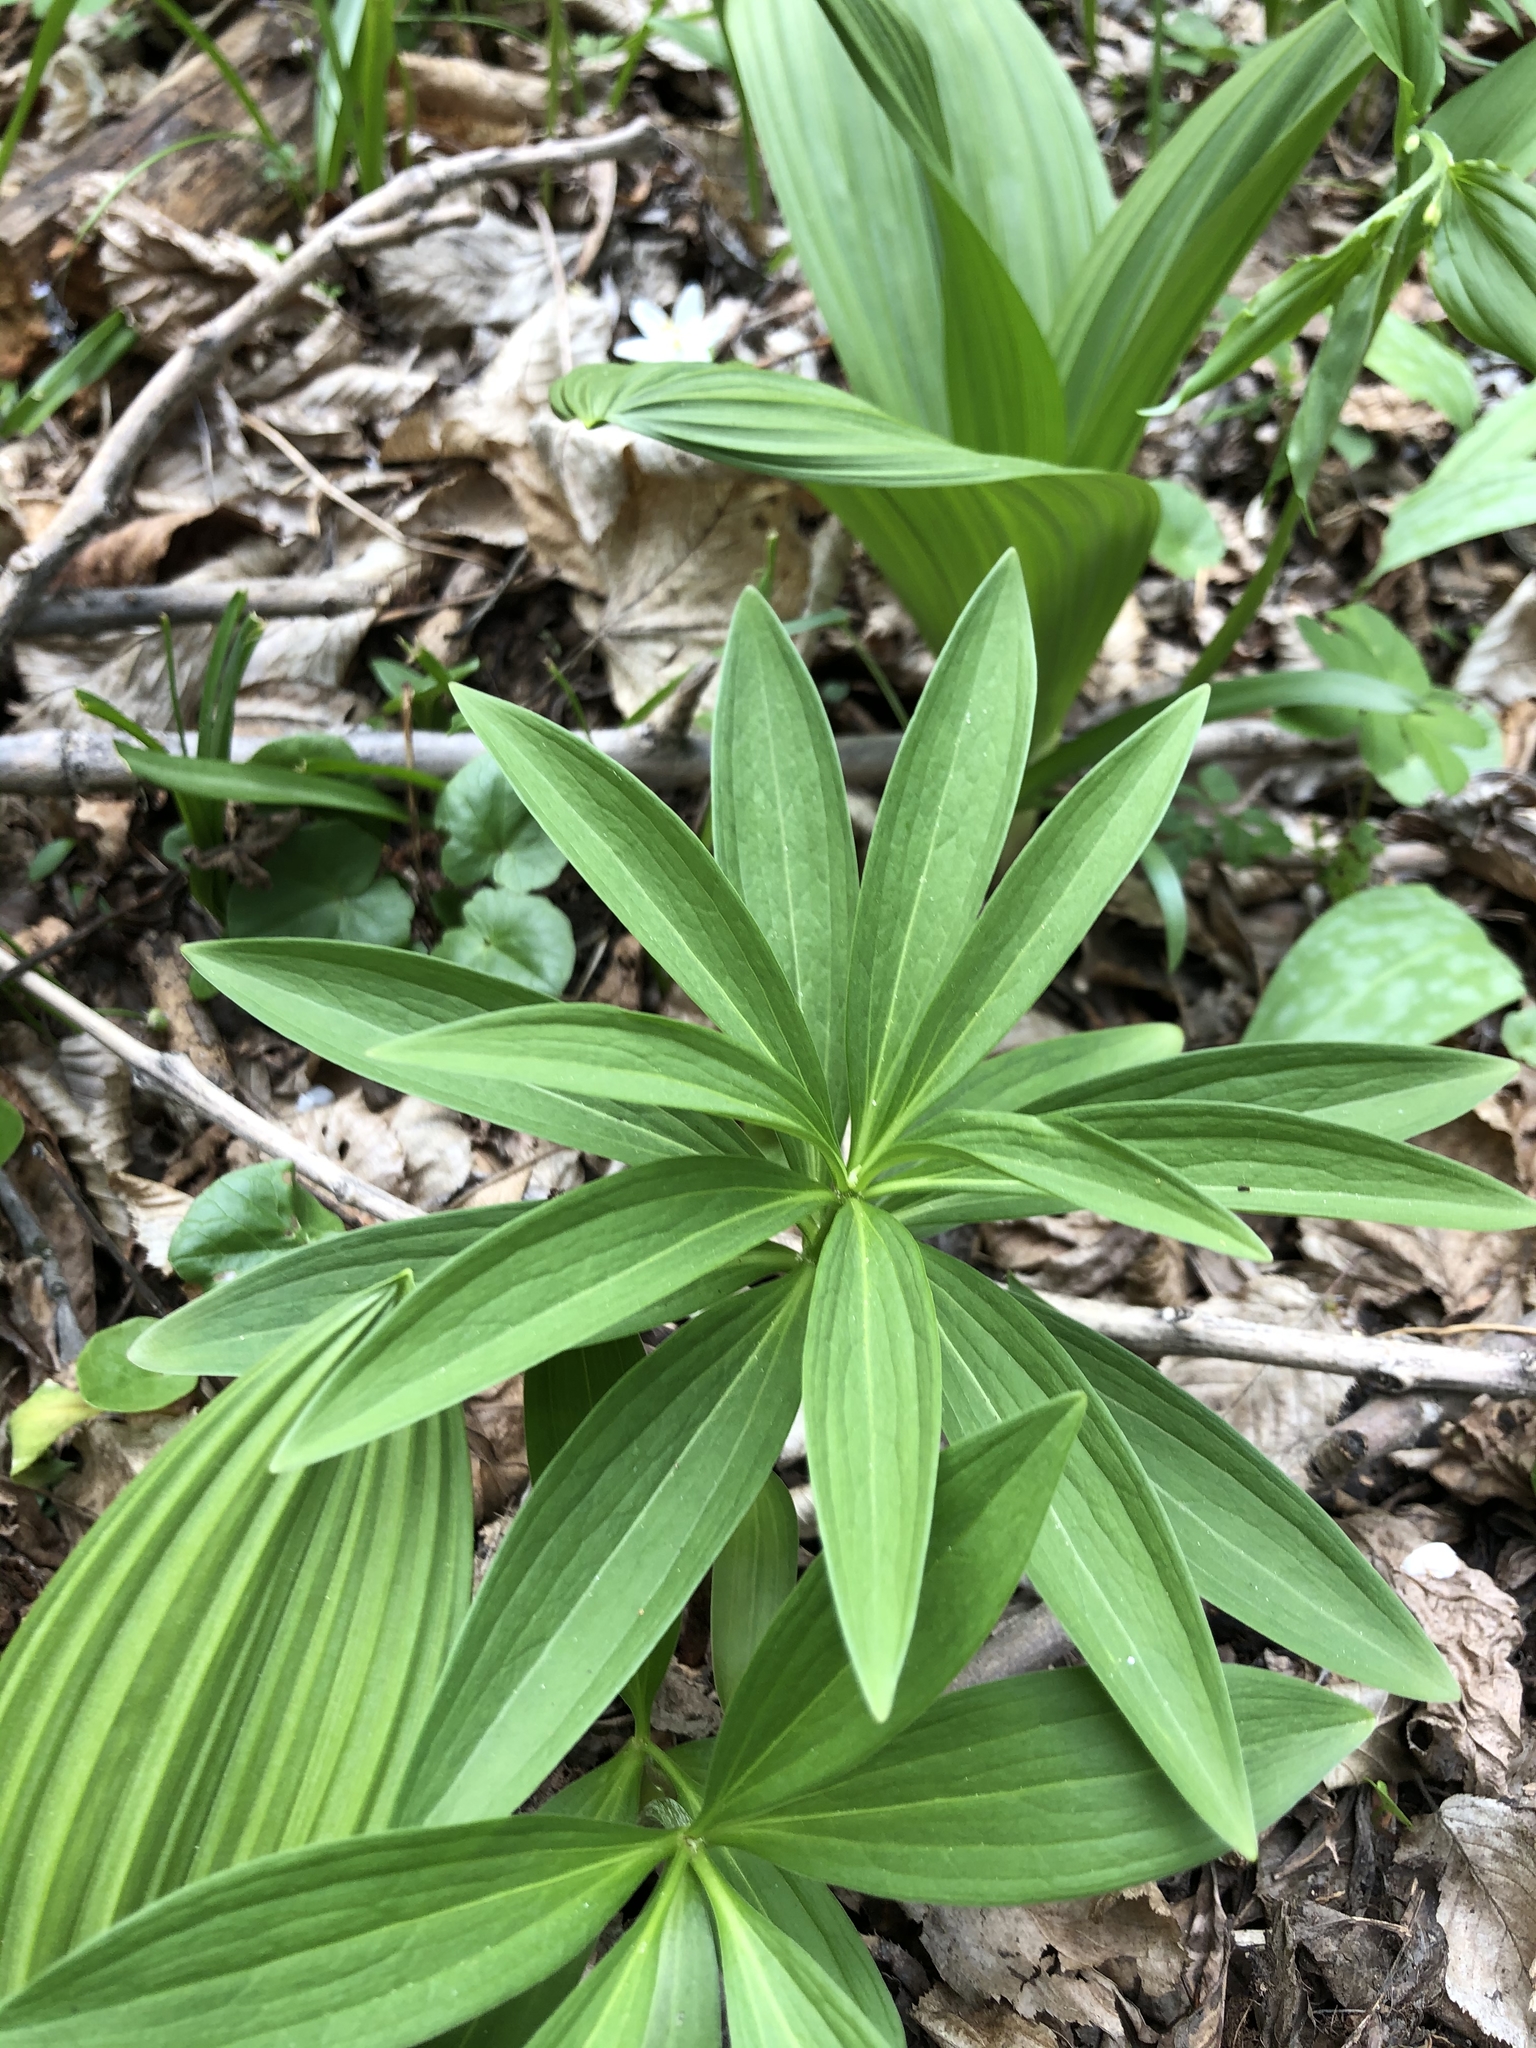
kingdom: Plantae
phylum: Tracheophyta
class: Liliopsida
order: Liliales
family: Liliaceae
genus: Lilium
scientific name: Lilium martagon
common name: Martagon lily
